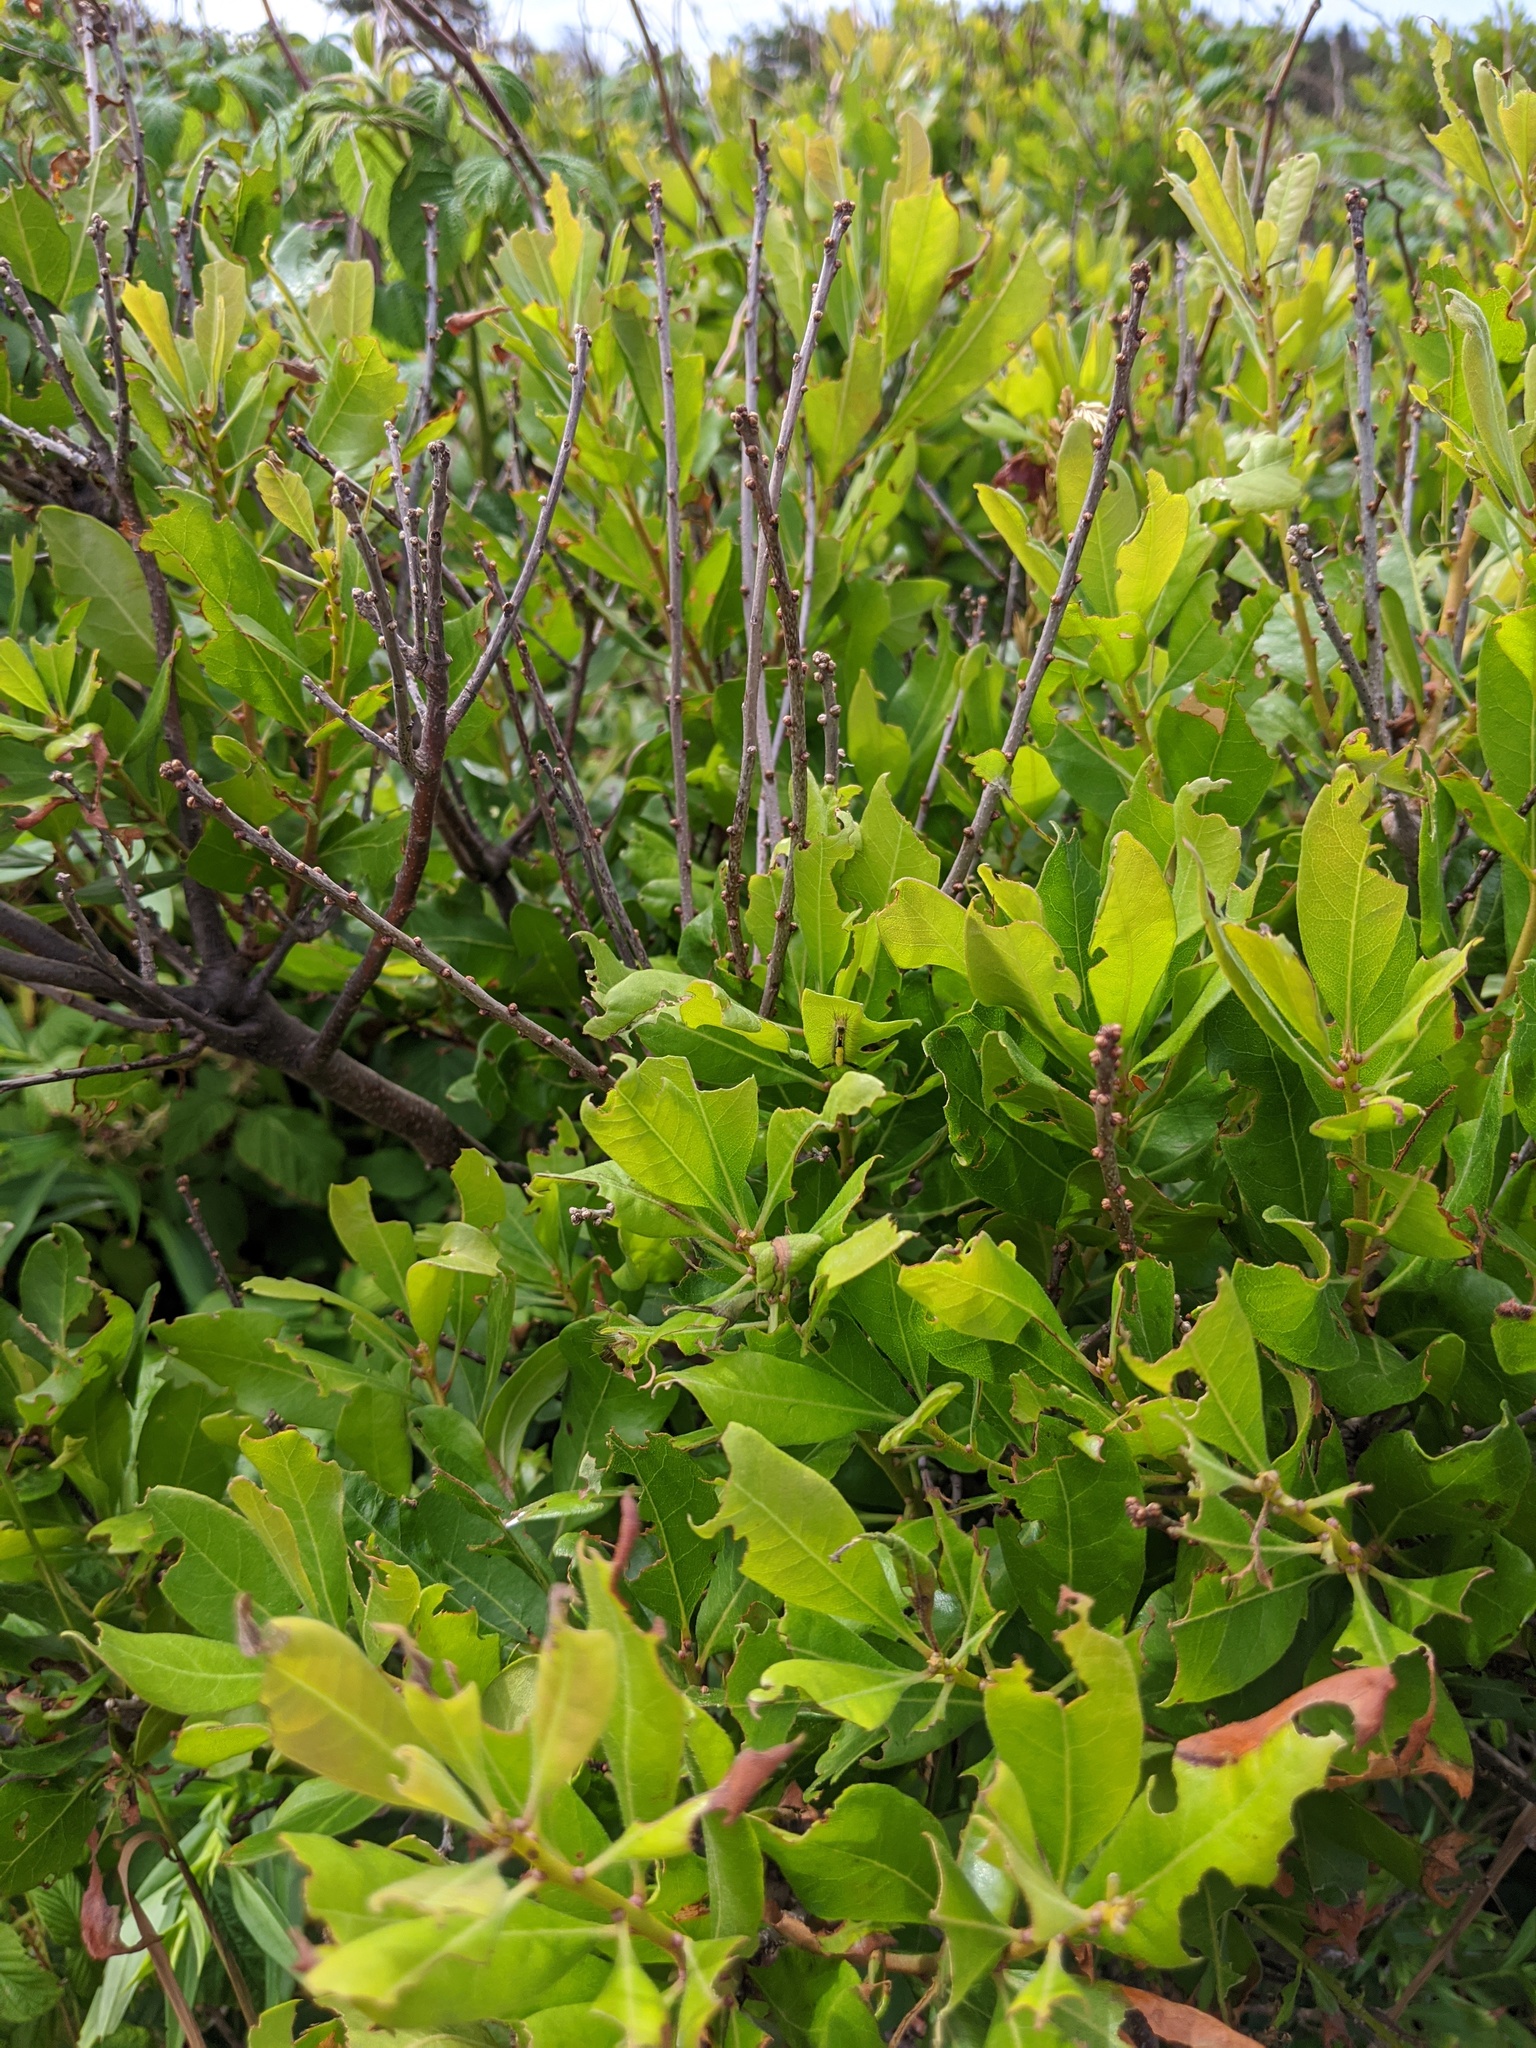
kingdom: Plantae
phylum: Tracheophyta
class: Magnoliopsida
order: Fagales
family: Myricaceae
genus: Morella
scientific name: Morella pensylvanica
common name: Northern bayberry
